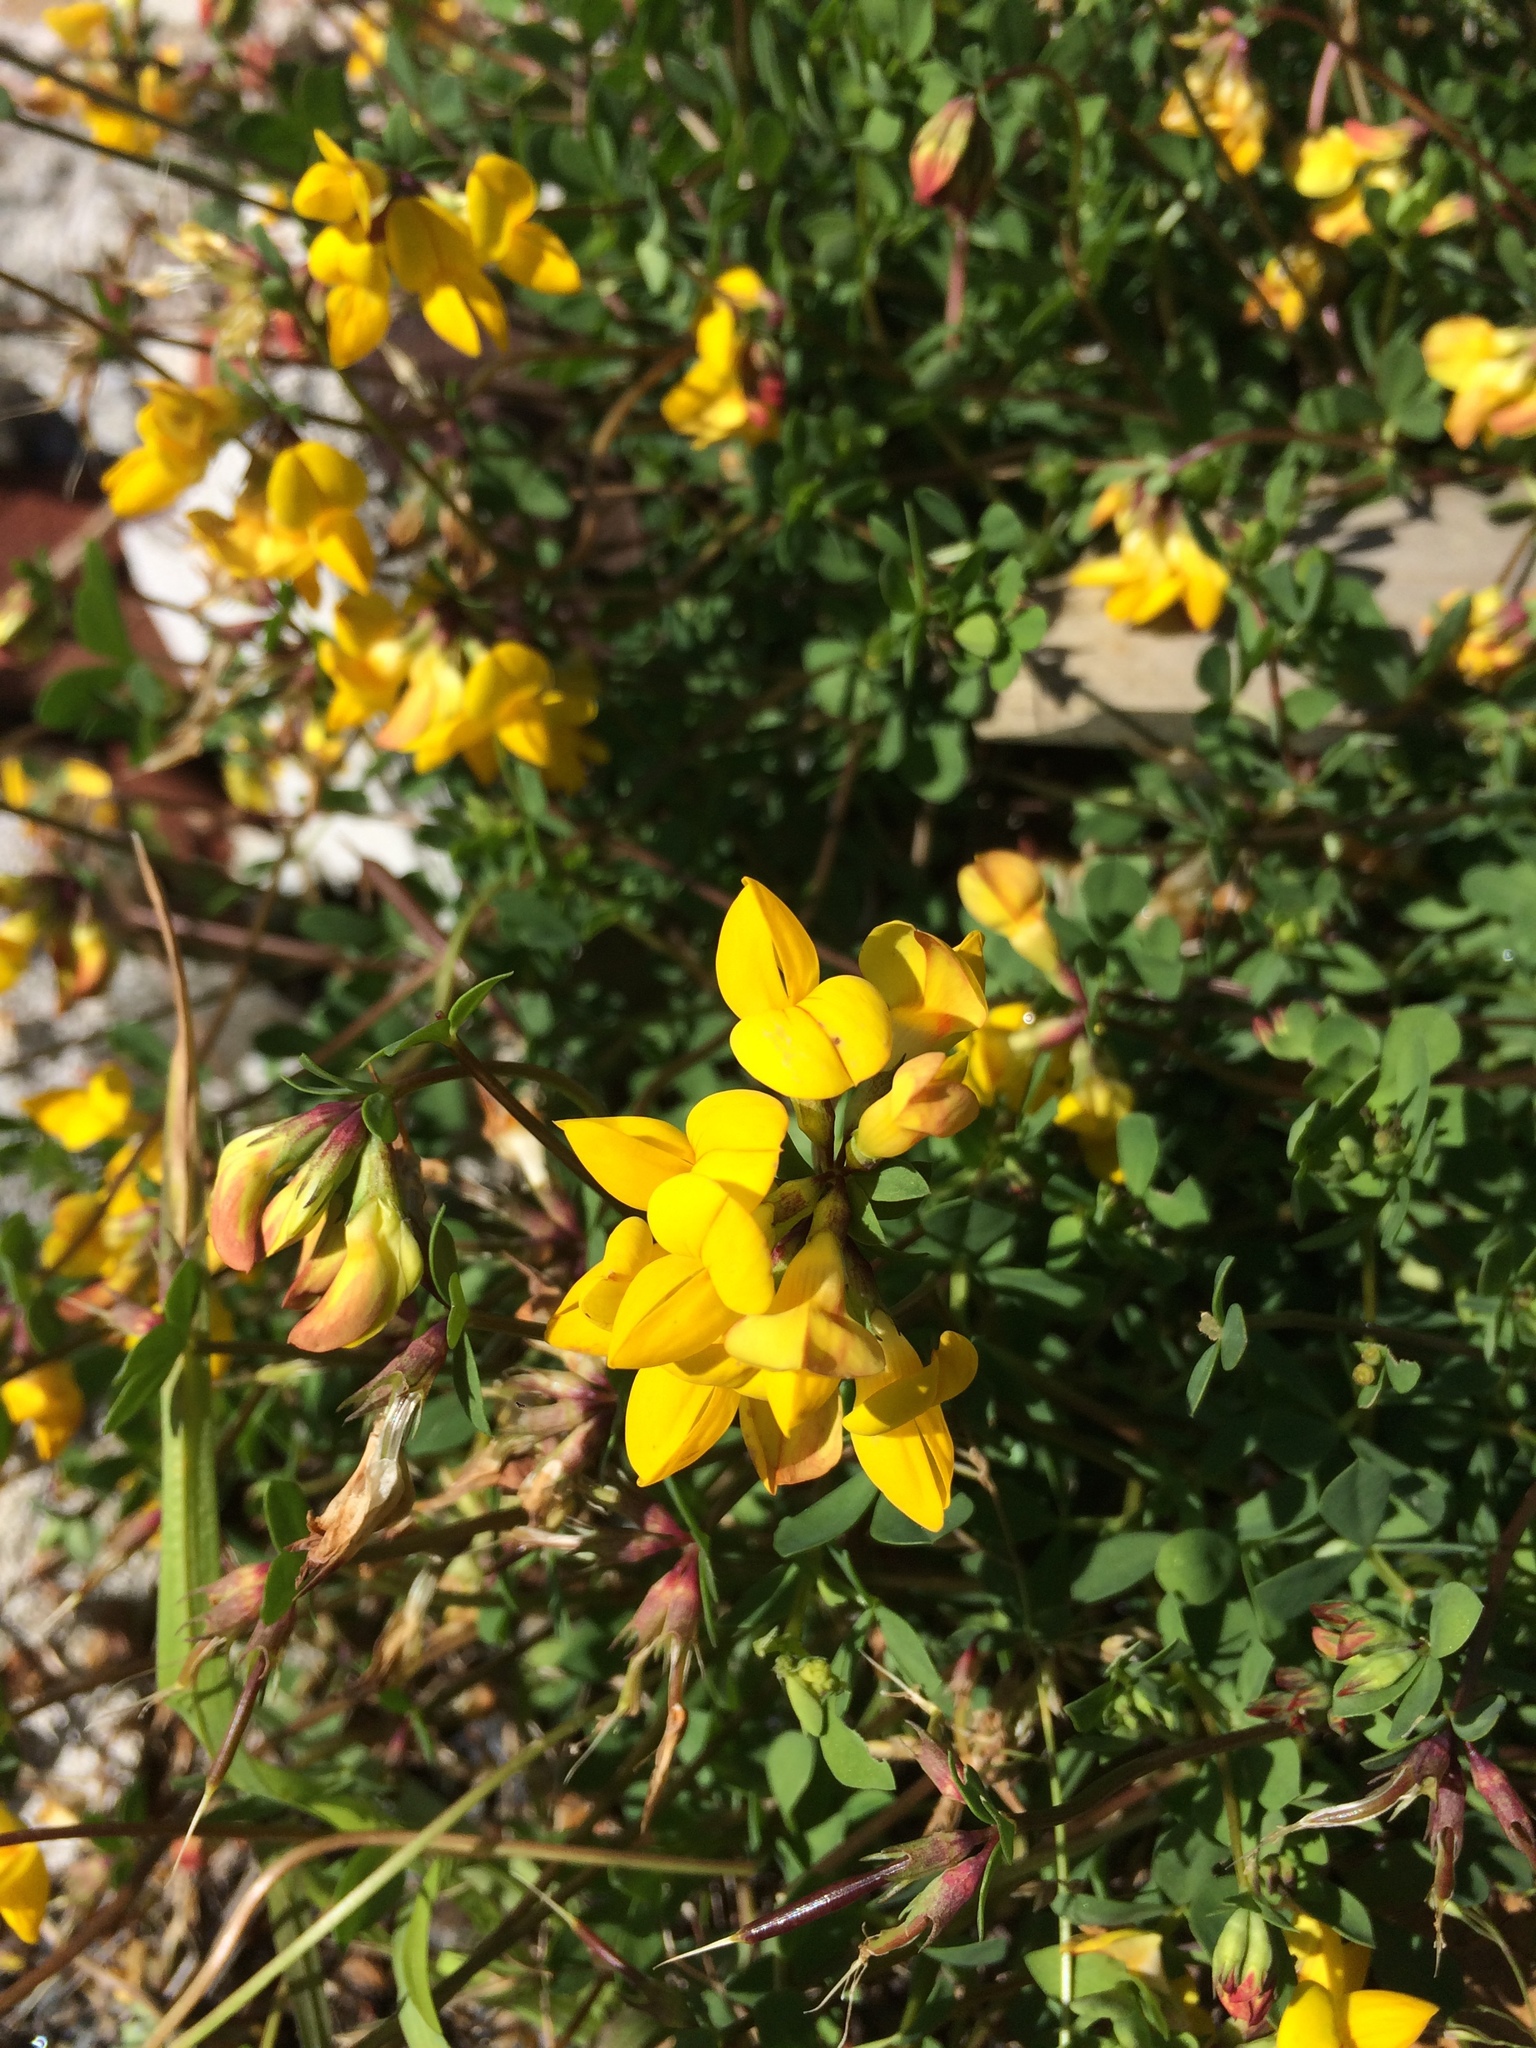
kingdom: Plantae
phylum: Tracheophyta
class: Magnoliopsida
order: Fabales
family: Fabaceae
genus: Lotus
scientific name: Lotus corniculatus
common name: Common bird's-foot-trefoil
